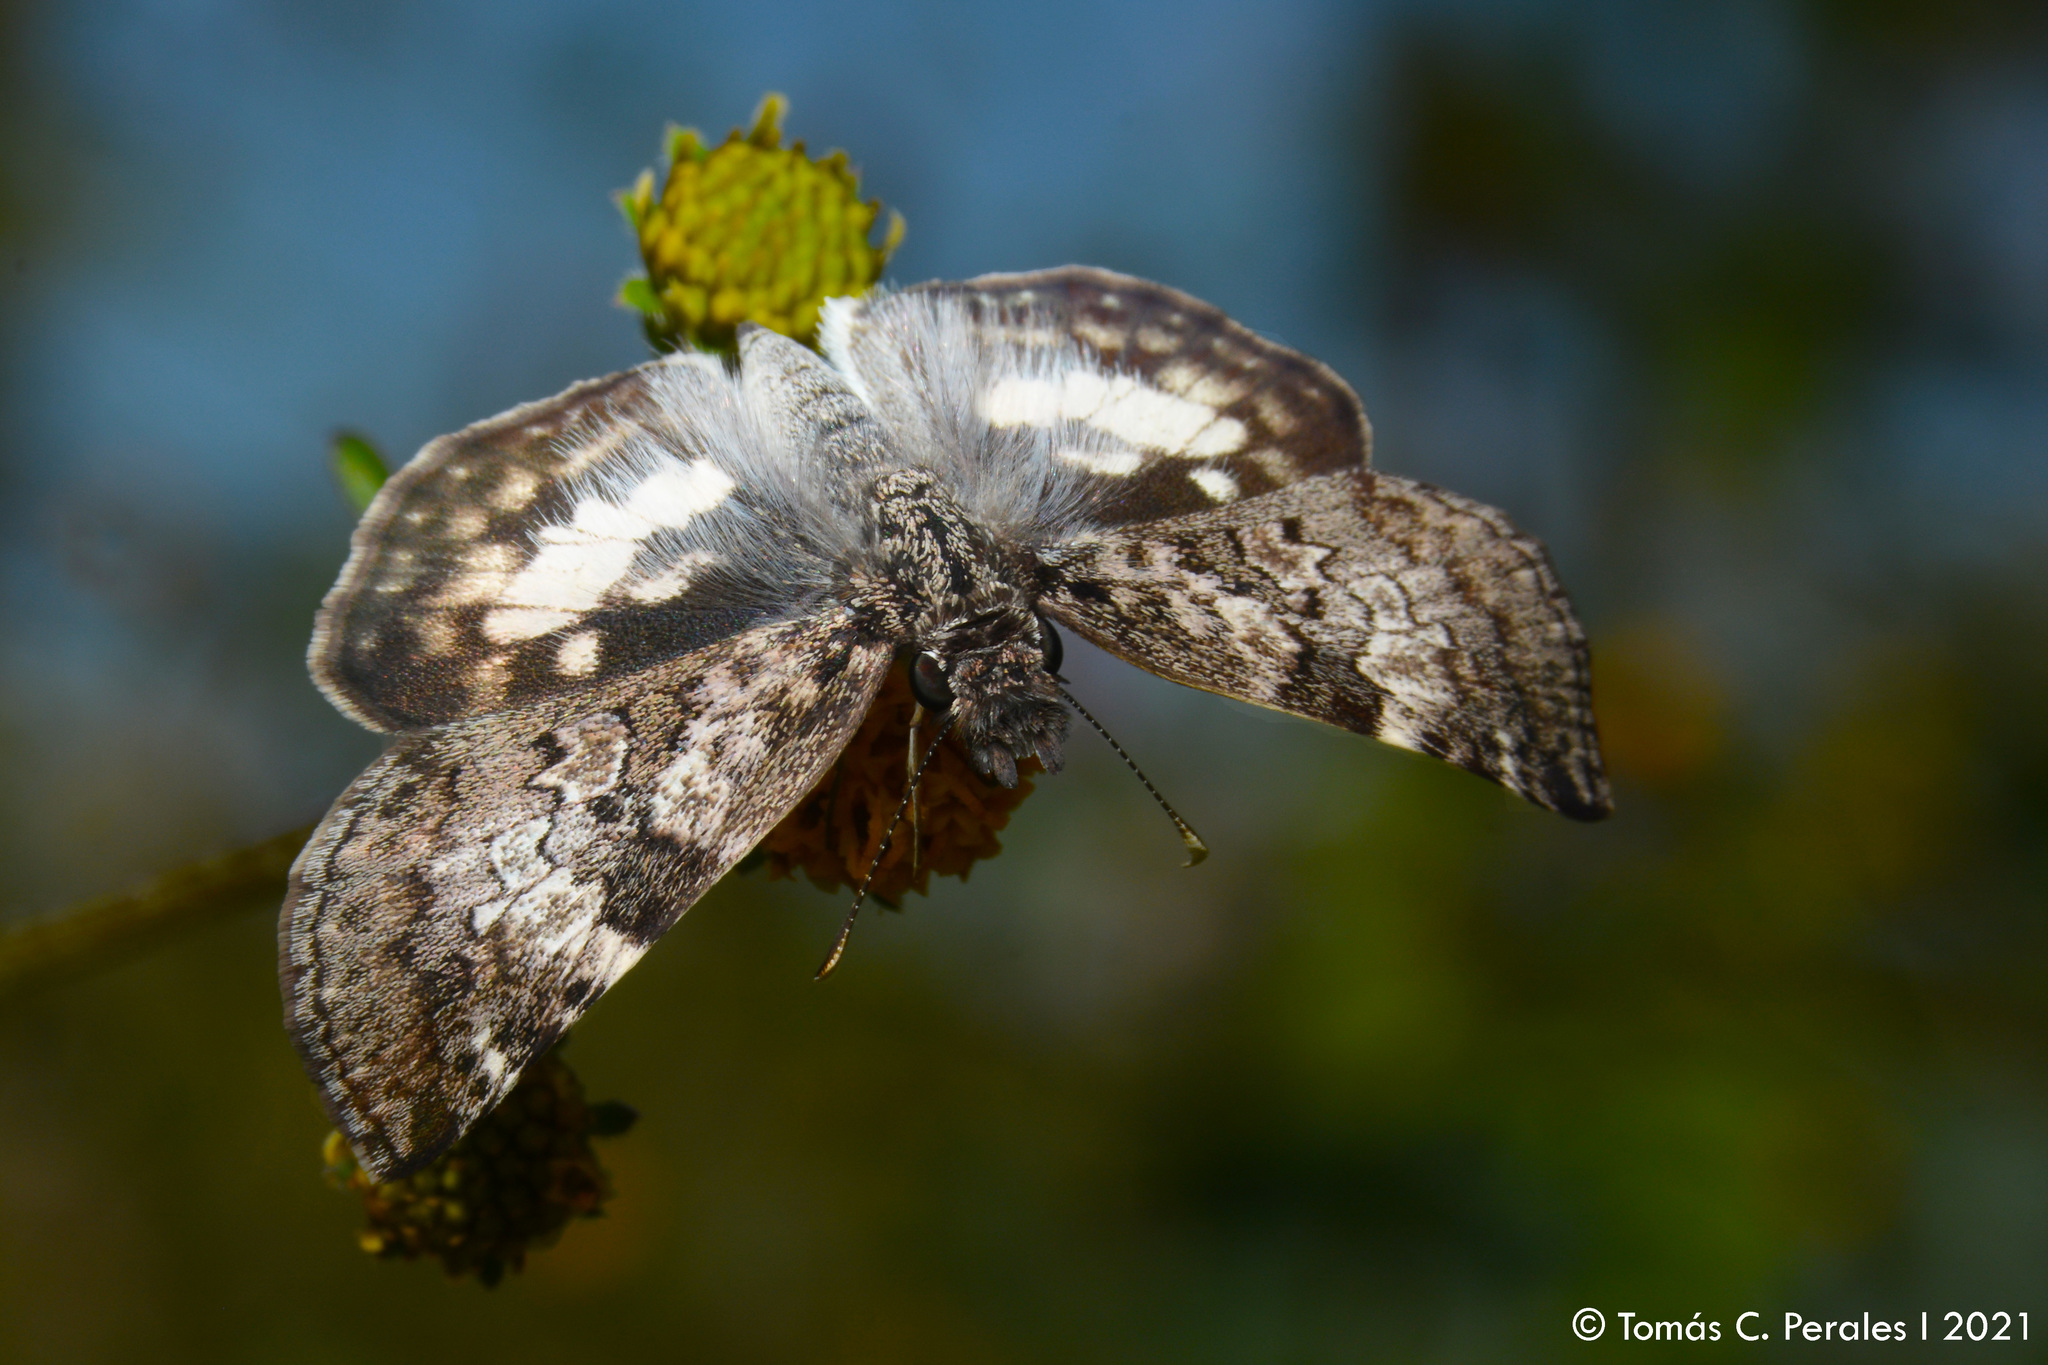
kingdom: Animalia
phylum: Arthropoda
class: Insecta
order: Lepidoptera
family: Hesperiidae
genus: Chiomara
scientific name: Chiomara asychis
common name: White-patterned skipper
